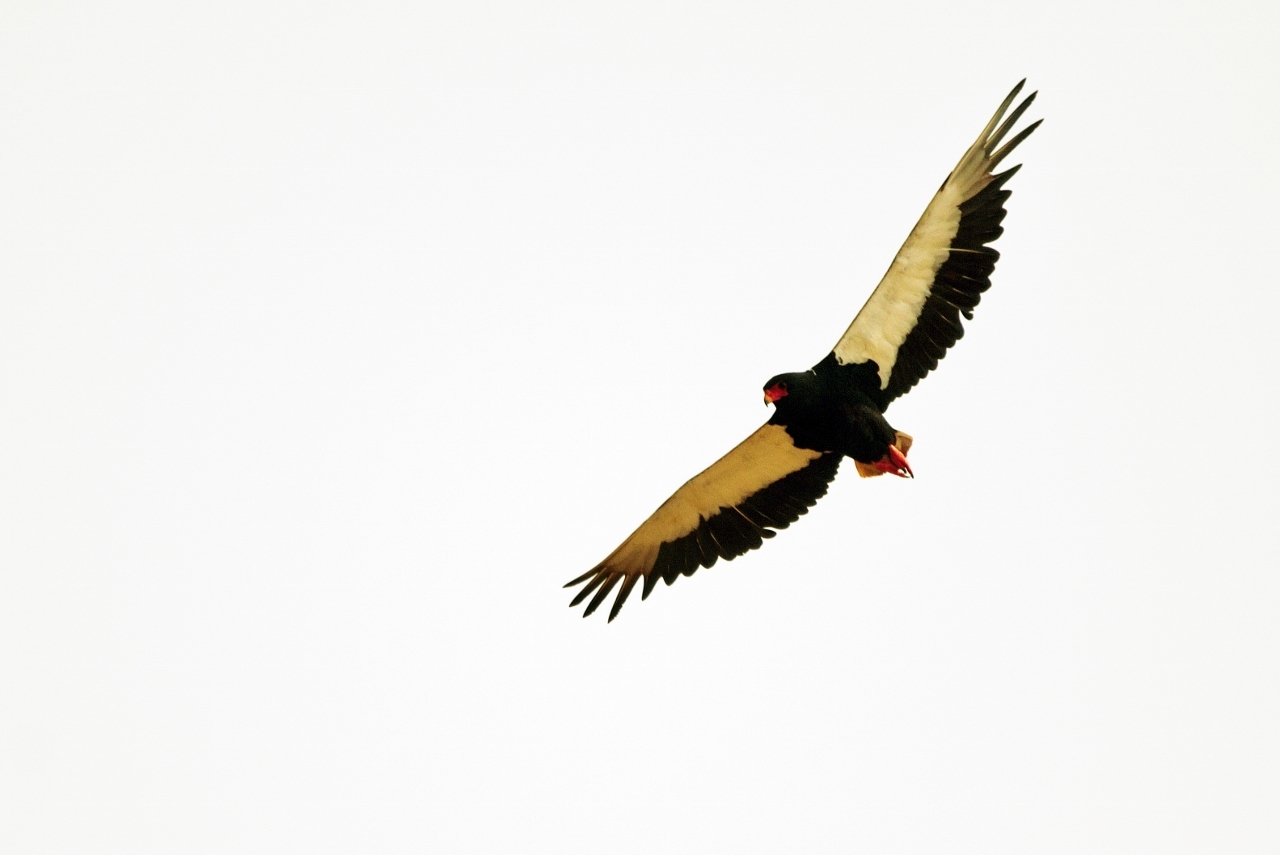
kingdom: Animalia
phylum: Chordata
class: Aves
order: Accipitriformes
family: Accipitridae
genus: Terathopius
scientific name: Terathopius ecaudatus
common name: Bateleur
